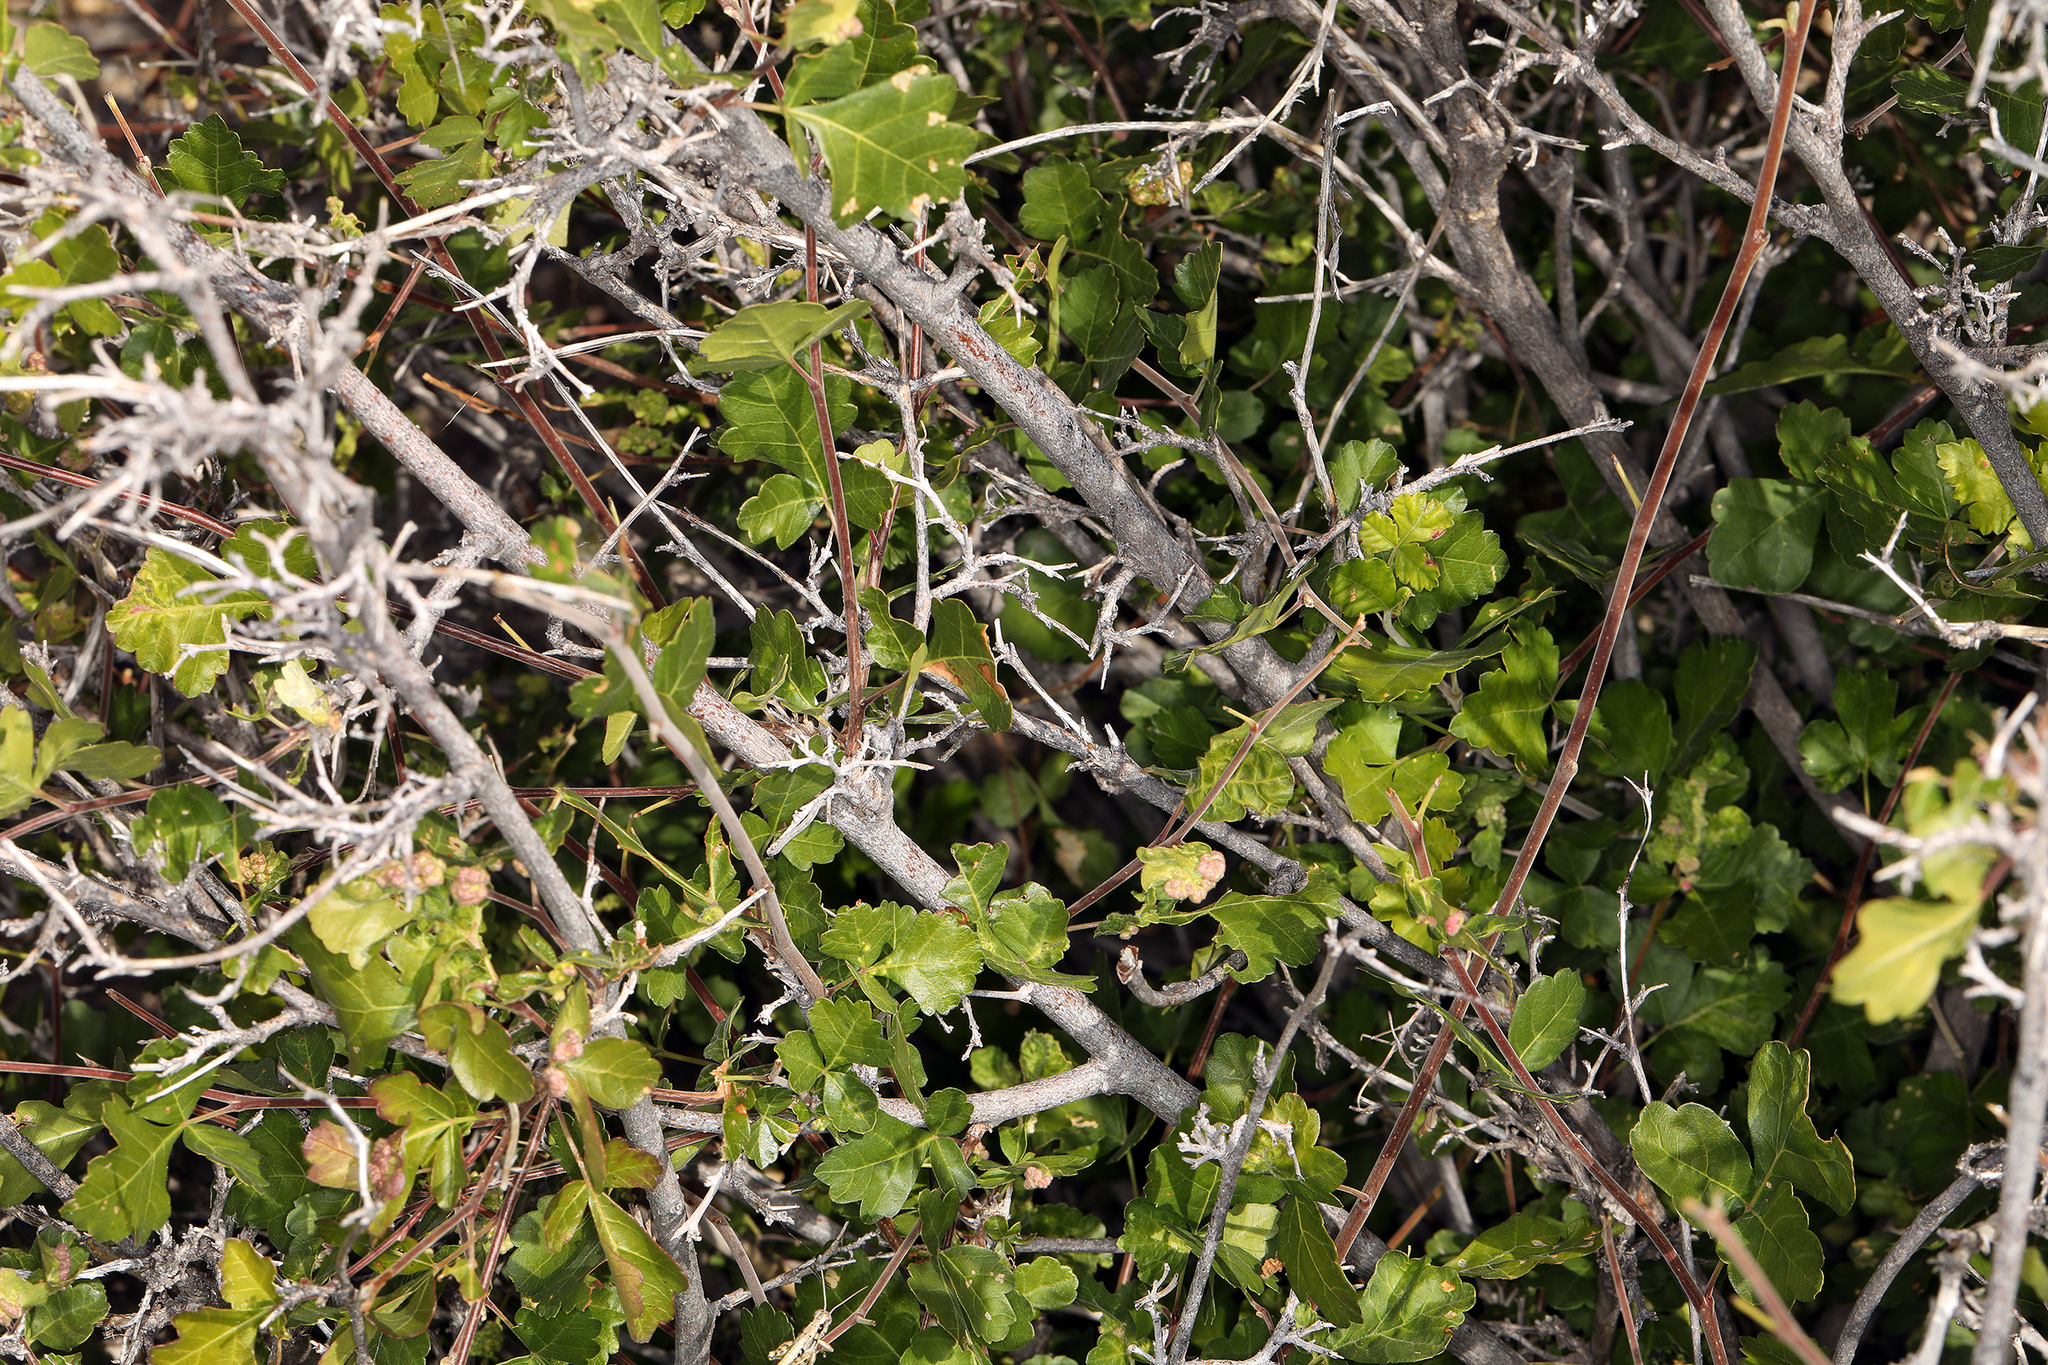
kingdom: Plantae
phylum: Tracheophyta
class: Magnoliopsida
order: Sapindales
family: Anacardiaceae
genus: Rhus
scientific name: Rhus trilobata
